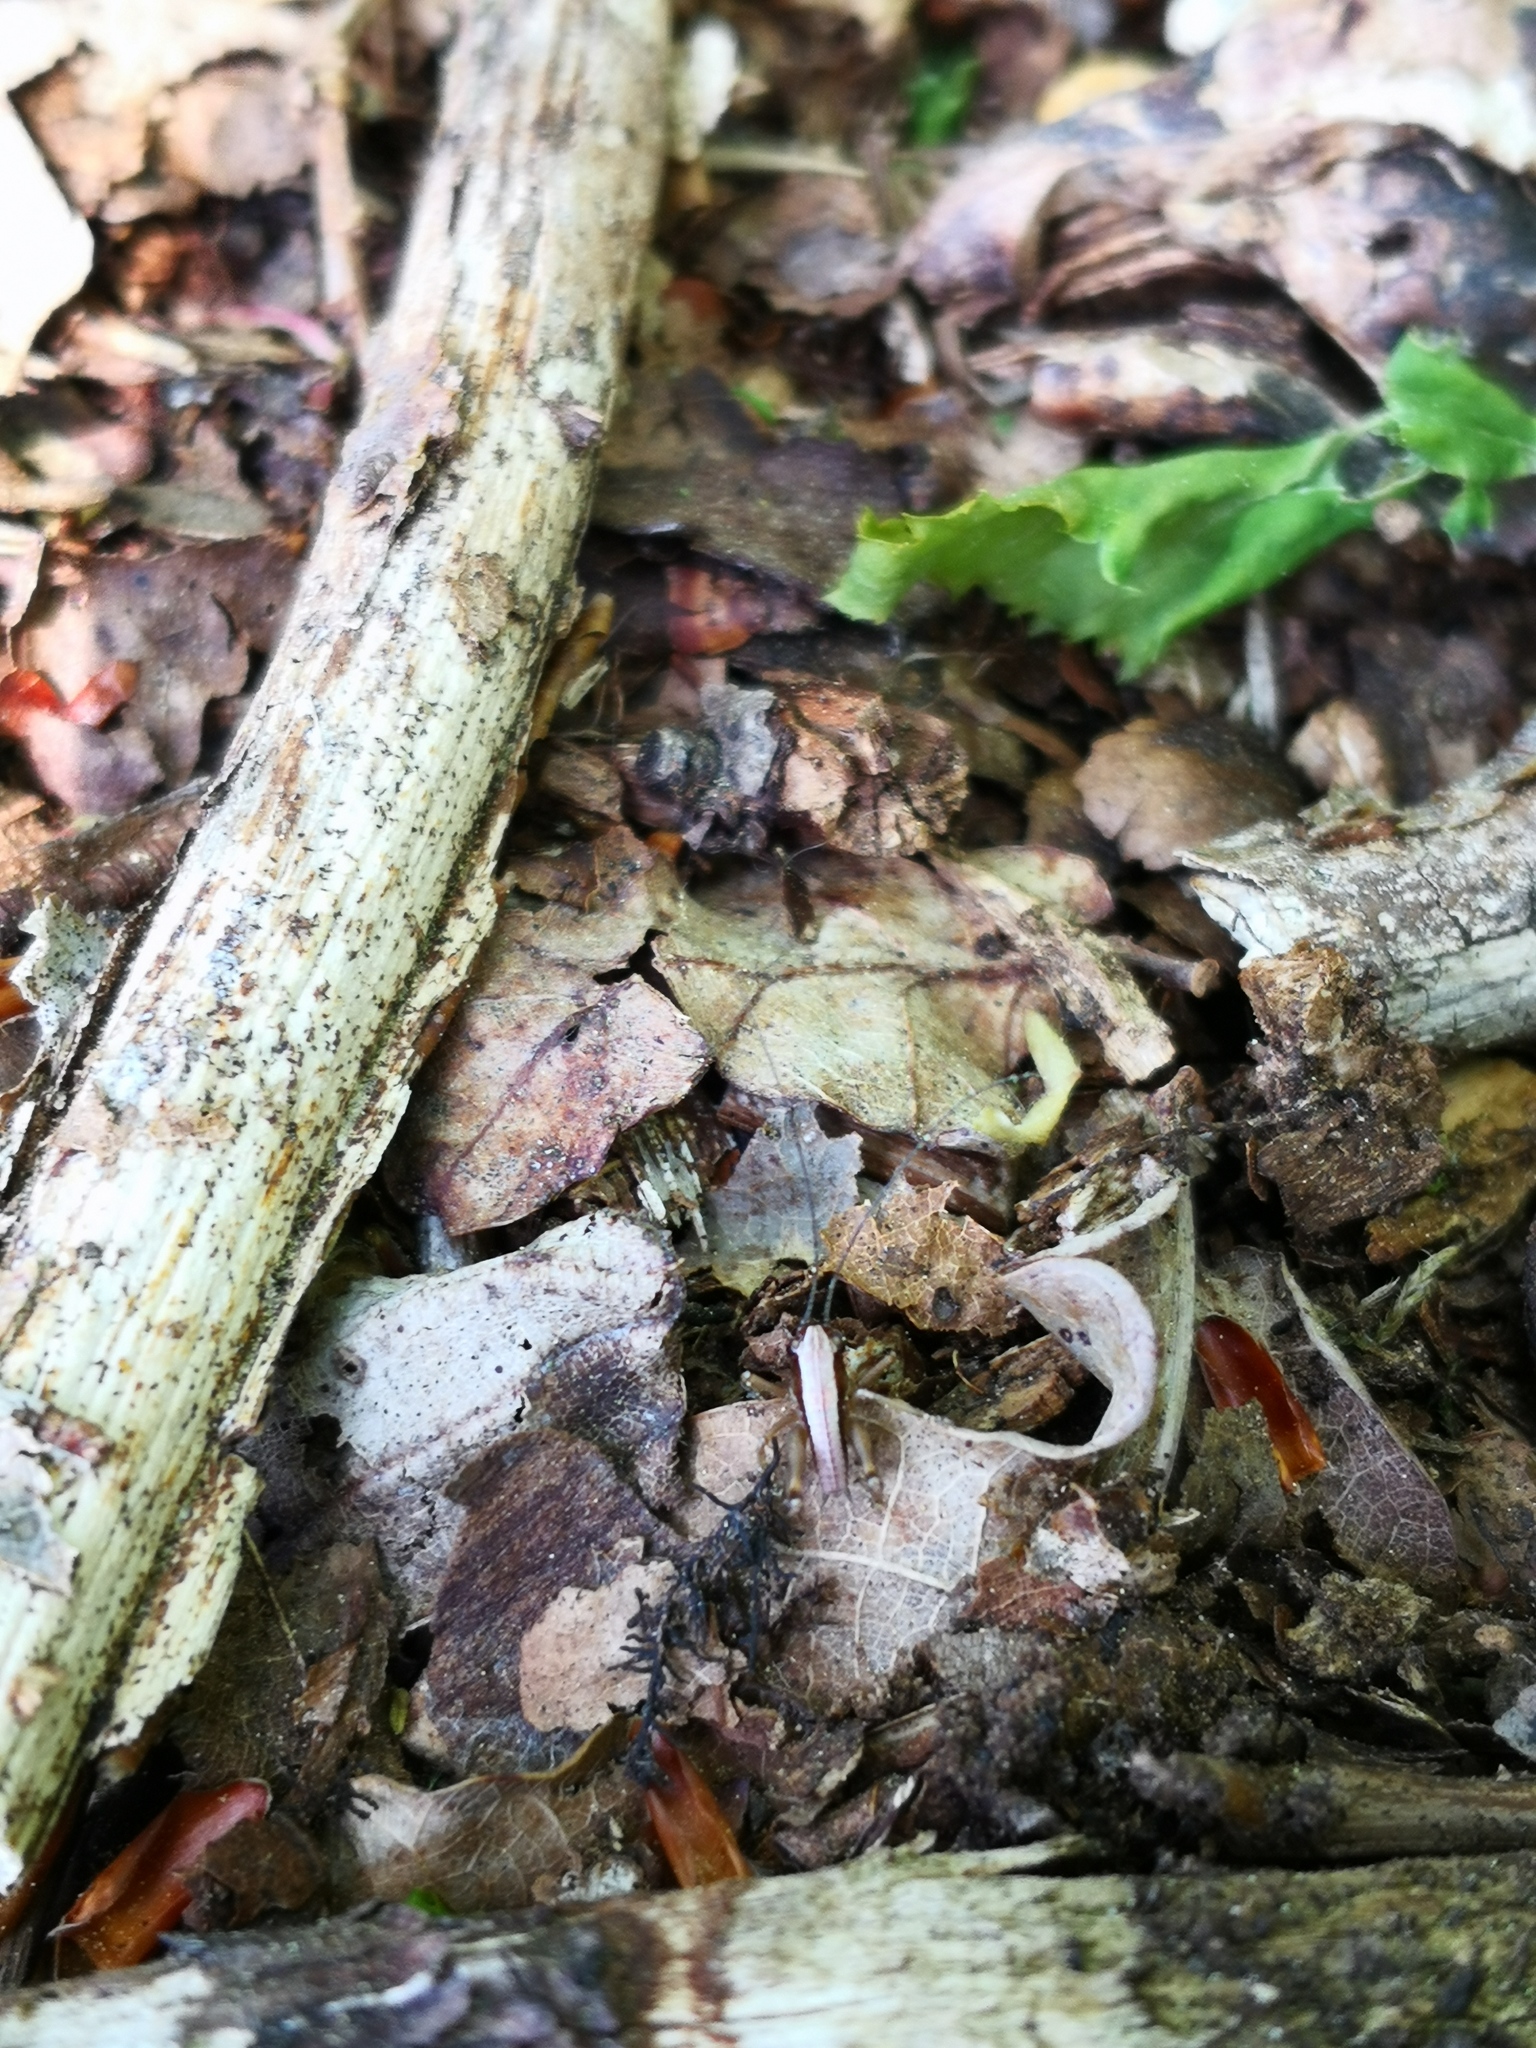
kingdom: Animalia
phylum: Arthropoda
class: Insecta
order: Orthoptera
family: Tettigoniidae
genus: Pholidoptera
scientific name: Pholidoptera griseoaptera
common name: Dark bush-cricket
